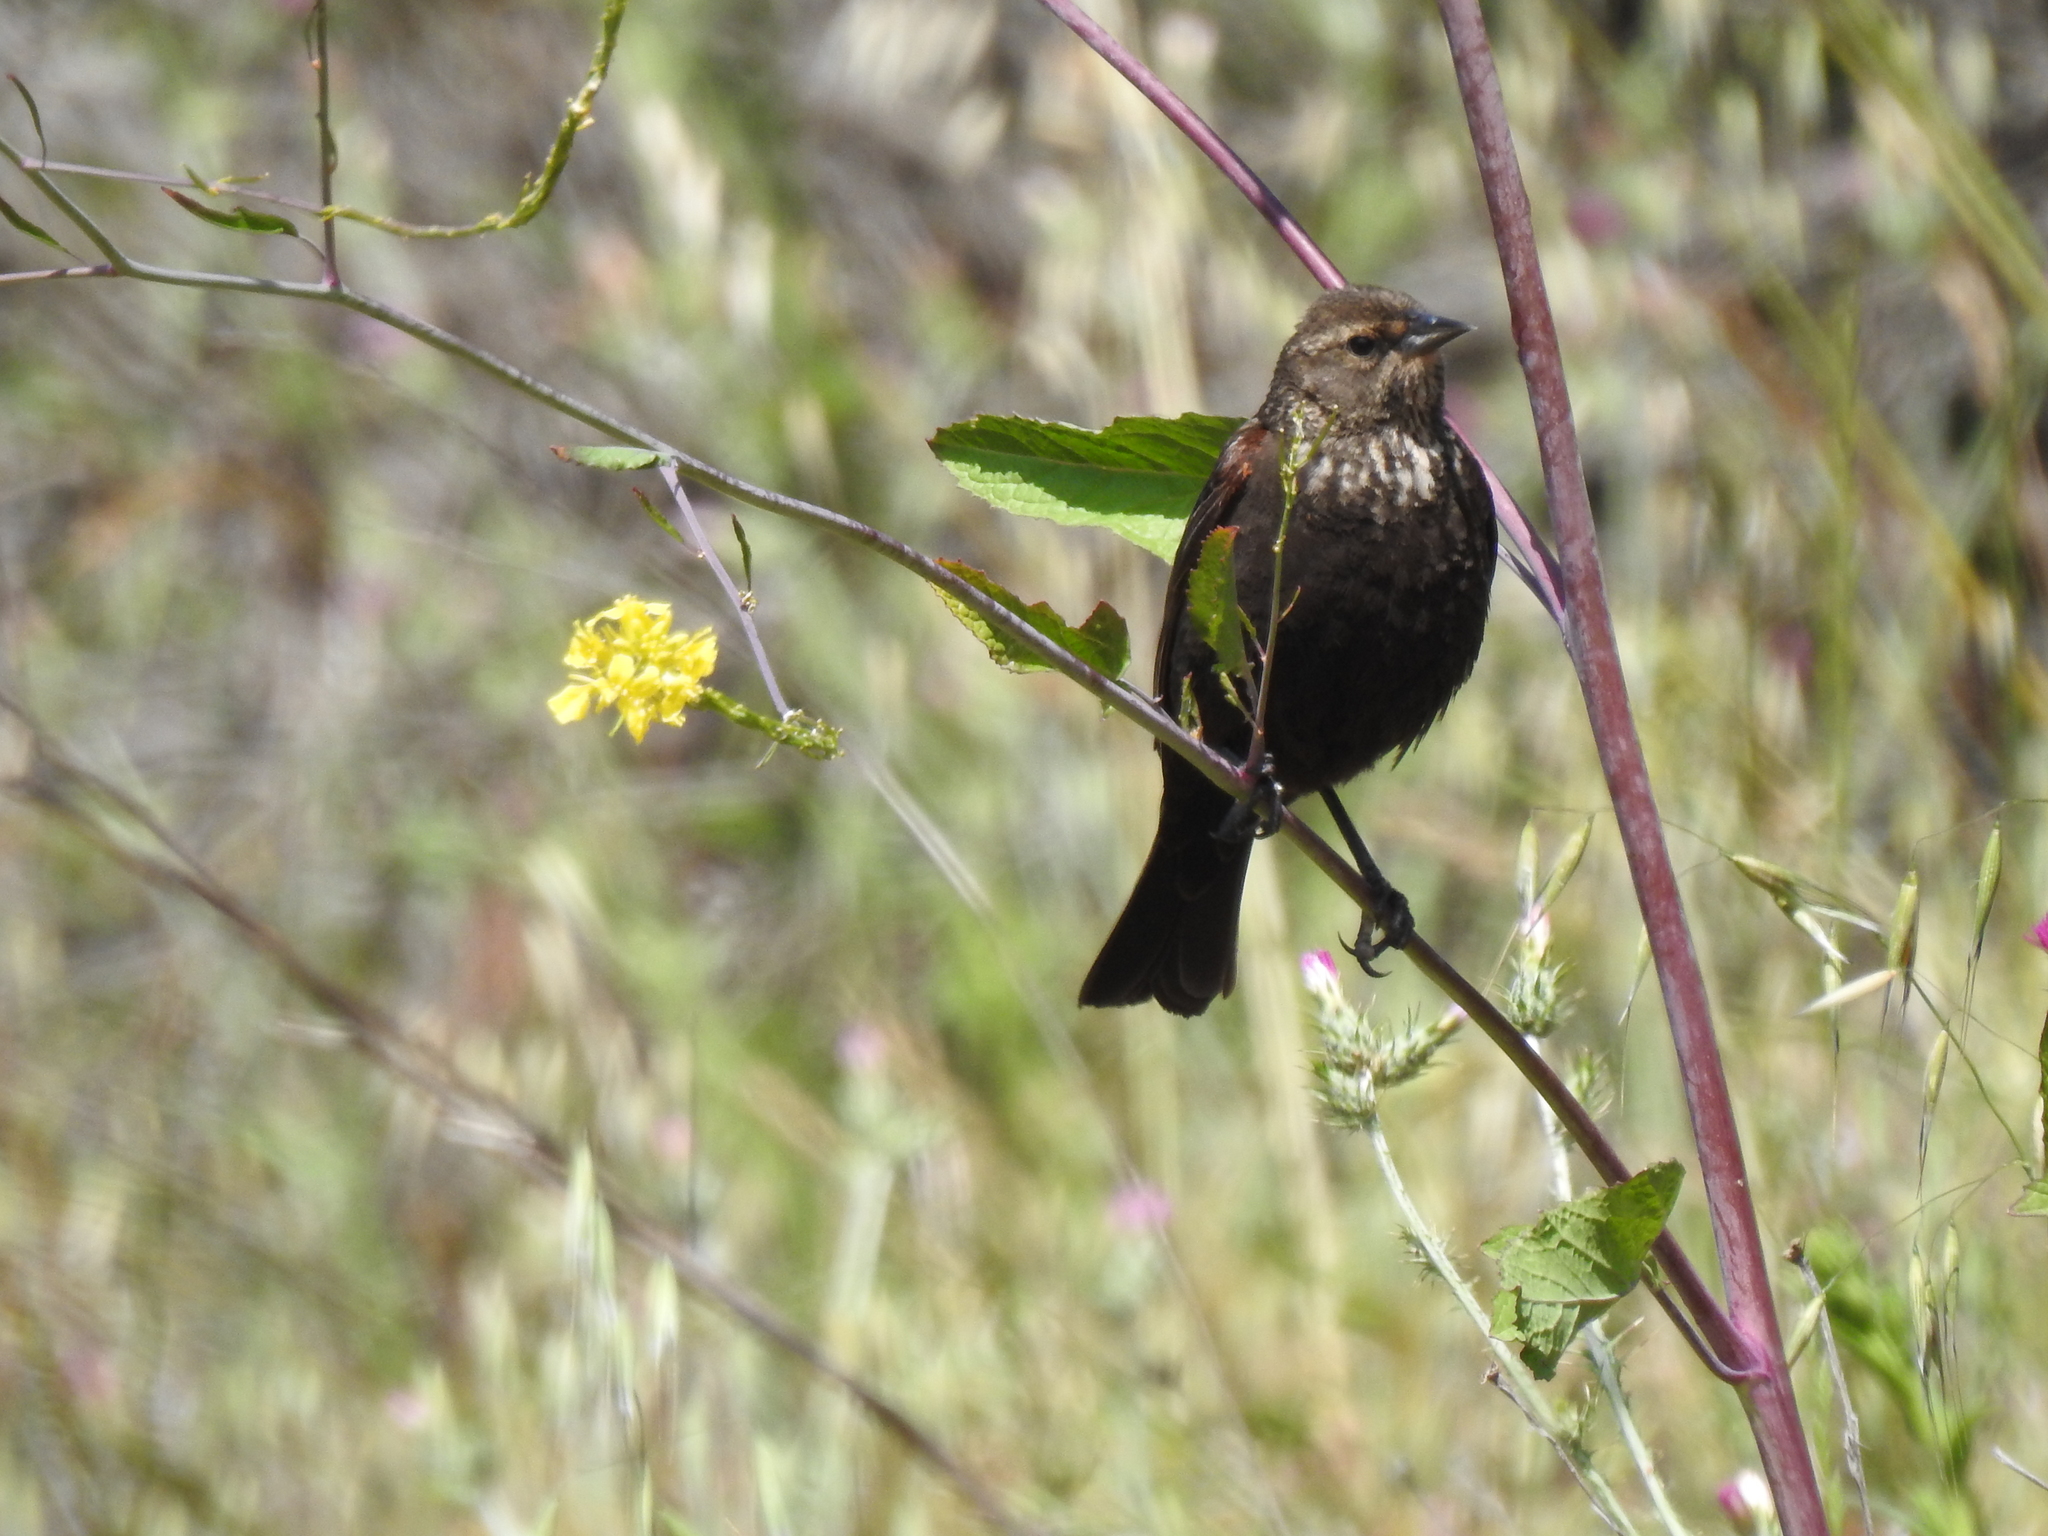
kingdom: Animalia
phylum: Chordata
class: Aves
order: Passeriformes
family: Icteridae
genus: Agelaius
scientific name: Agelaius phoeniceus
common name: Red-winged blackbird
